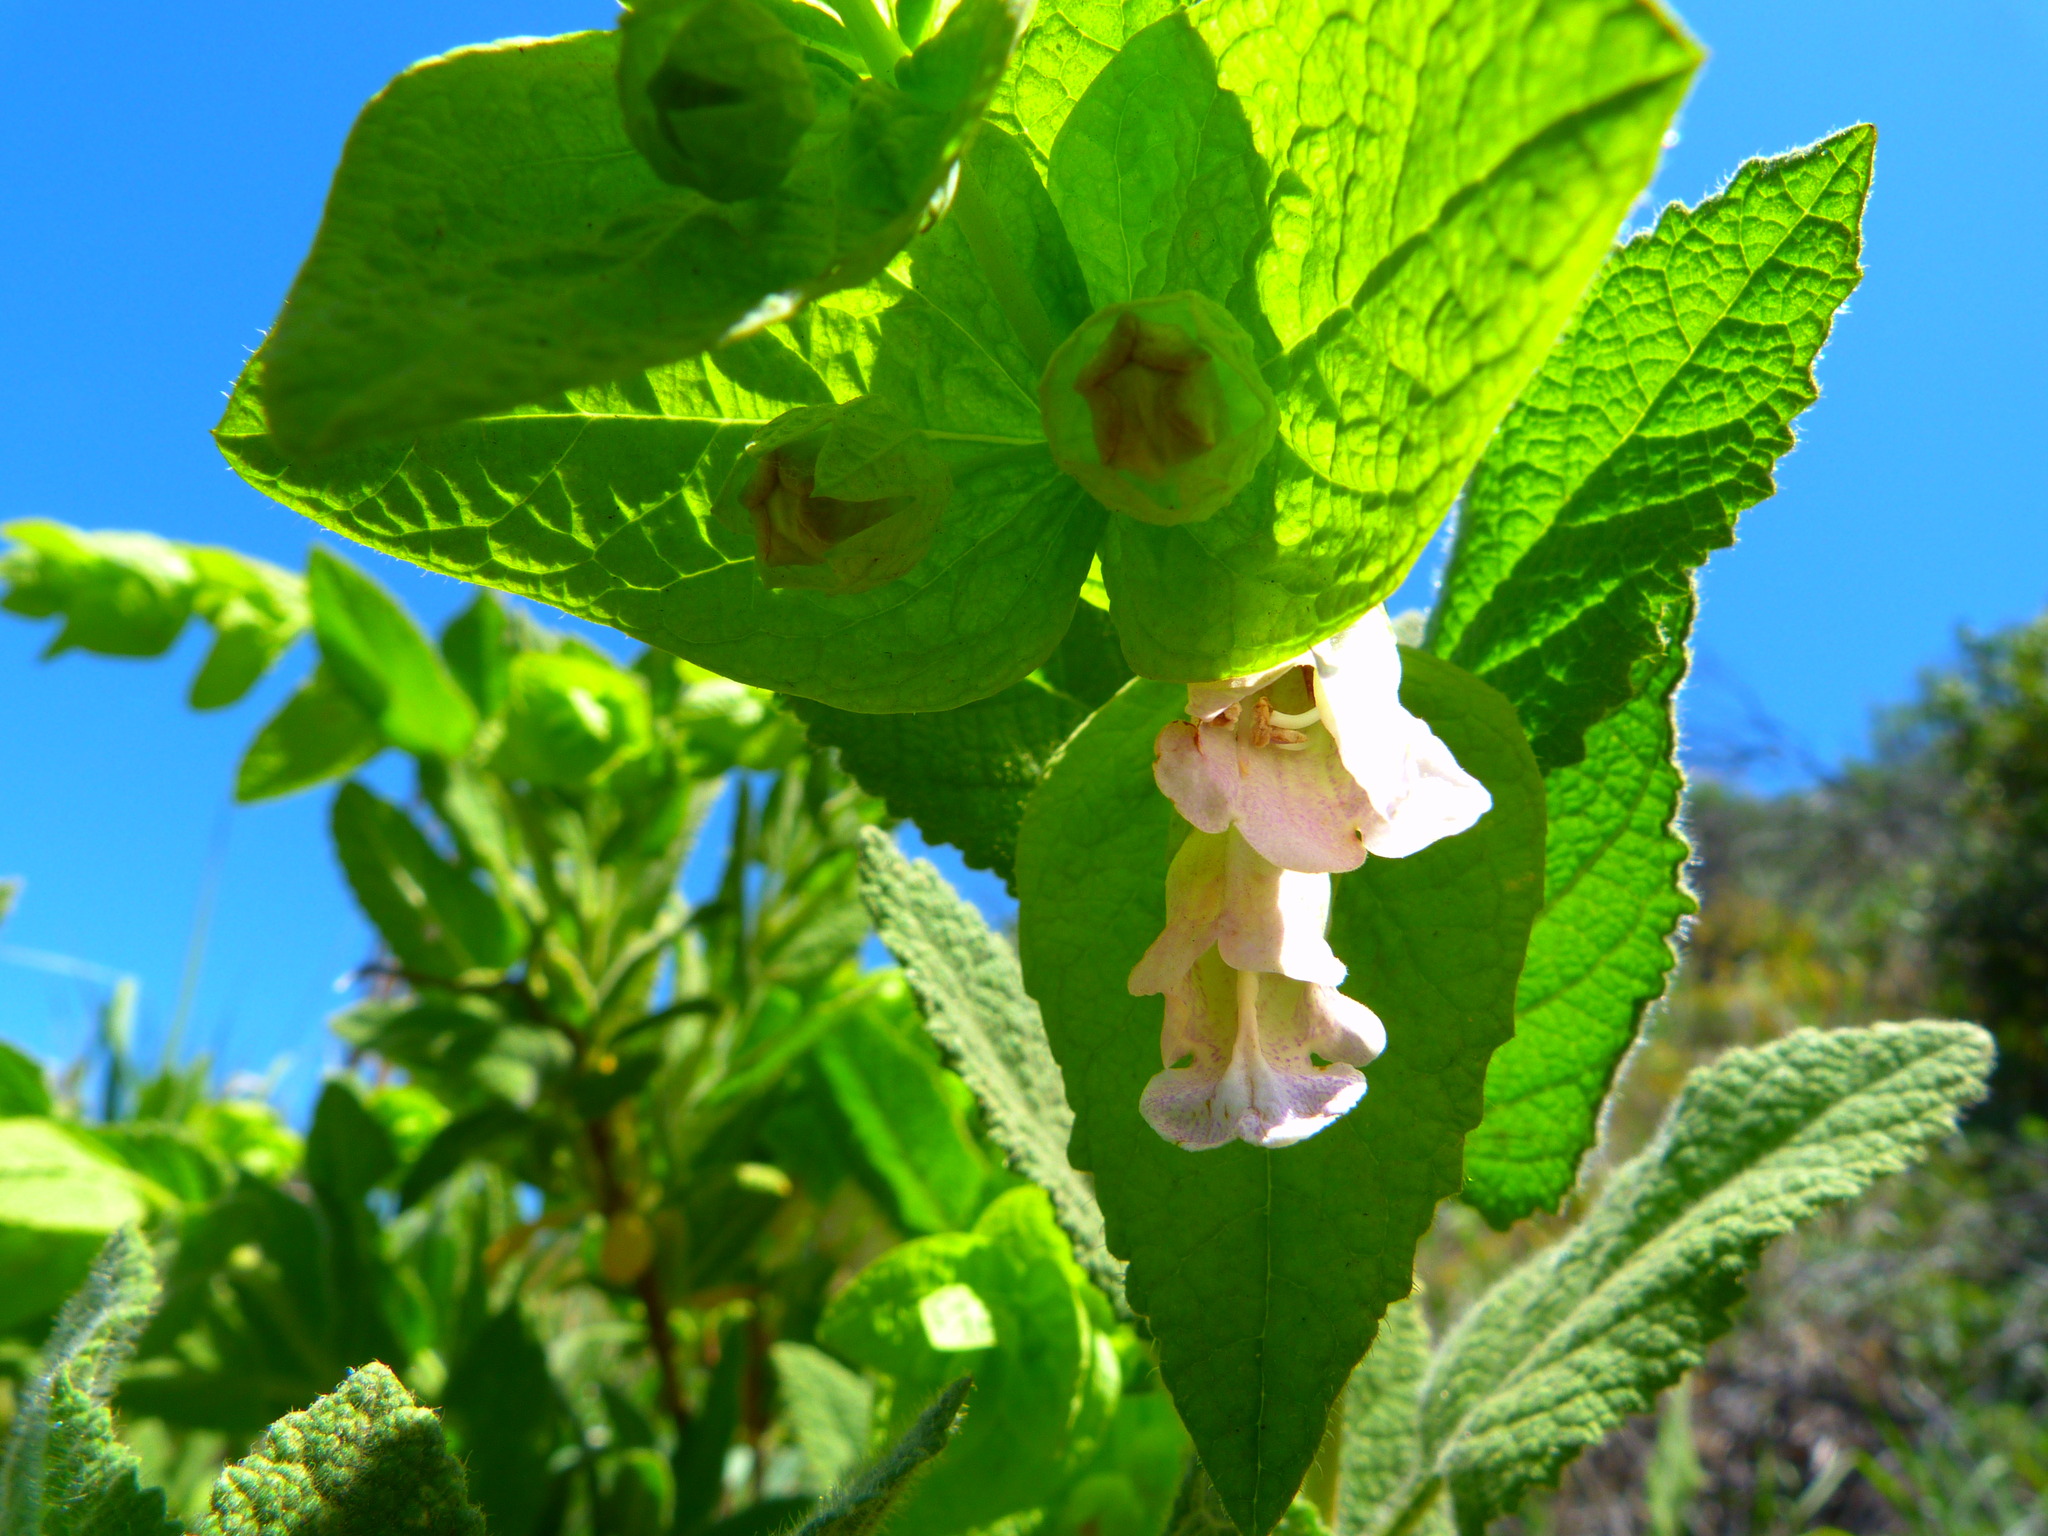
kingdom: Plantae
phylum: Tracheophyta
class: Magnoliopsida
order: Lamiales
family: Lamiaceae
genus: Lepechinia
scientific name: Lepechinia rossii
